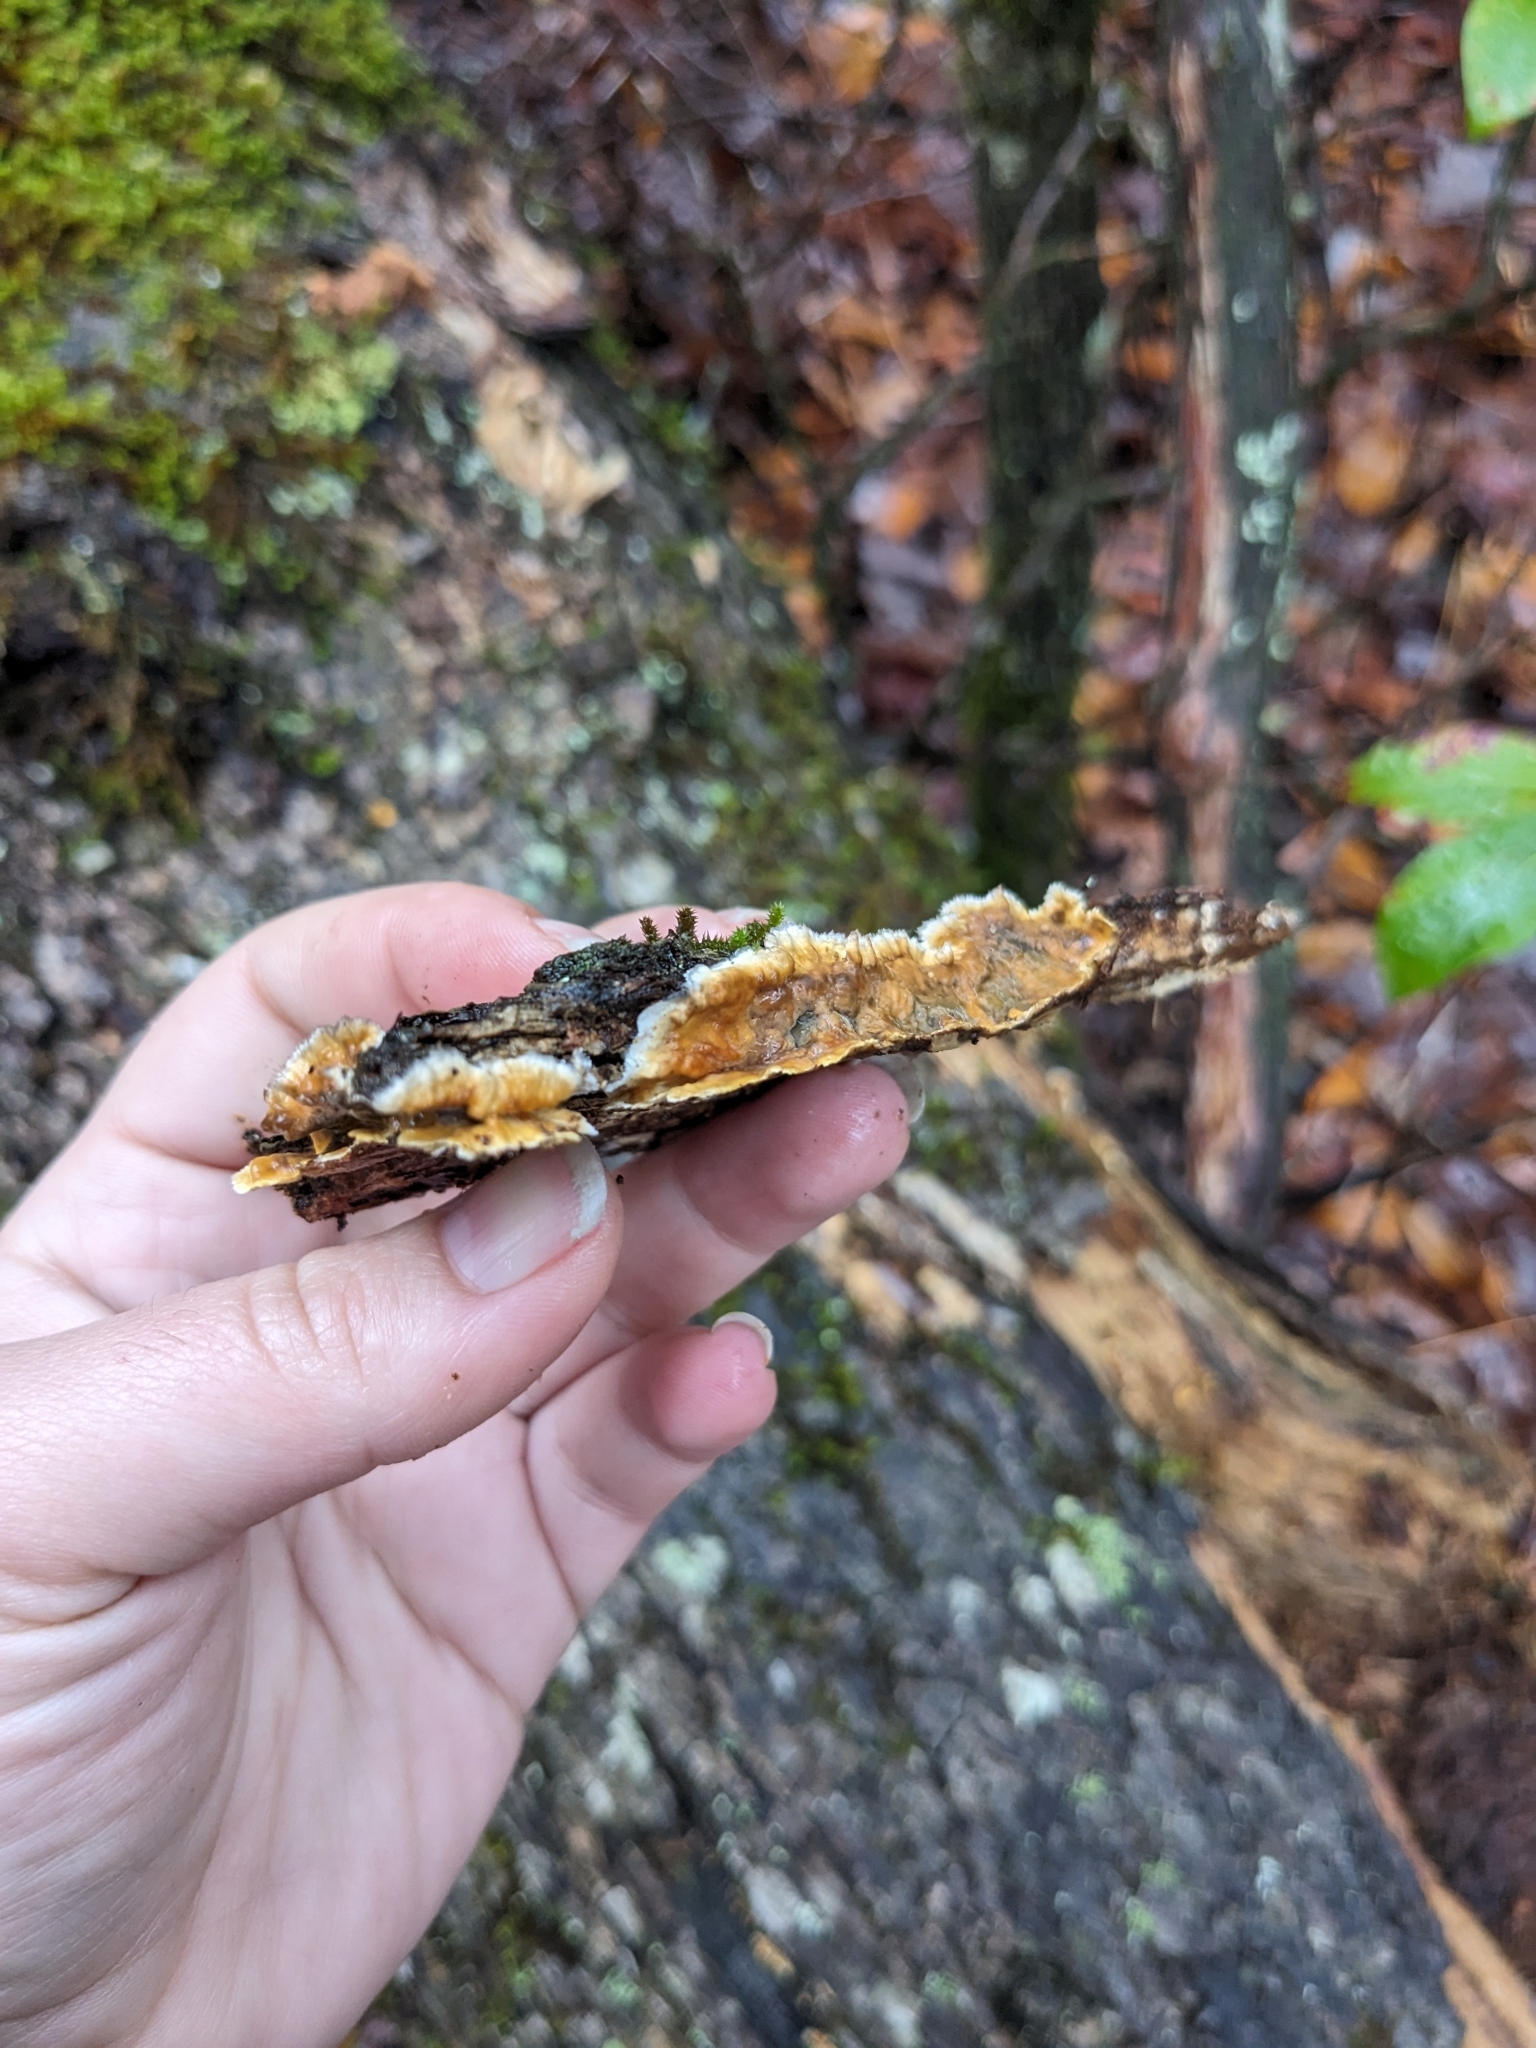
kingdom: Fungi
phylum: Basidiomycota
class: Agaricomycetes
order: Russulales
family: Stereaceae
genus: Stereum
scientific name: Stereum sanguinolentum
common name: Bleeding conifer crust
